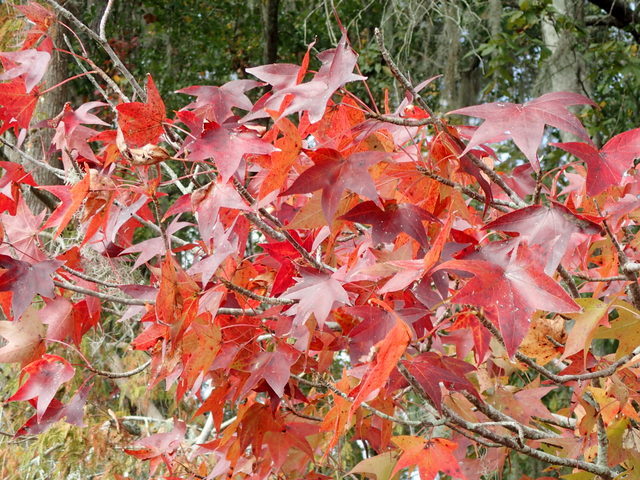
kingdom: Plantae
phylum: Tracheophyta
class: Magnoliopsida
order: Saxifragales
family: Altingiaceae
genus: Liquidambar
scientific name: Liquidambar styraciflua
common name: Sweet gum
